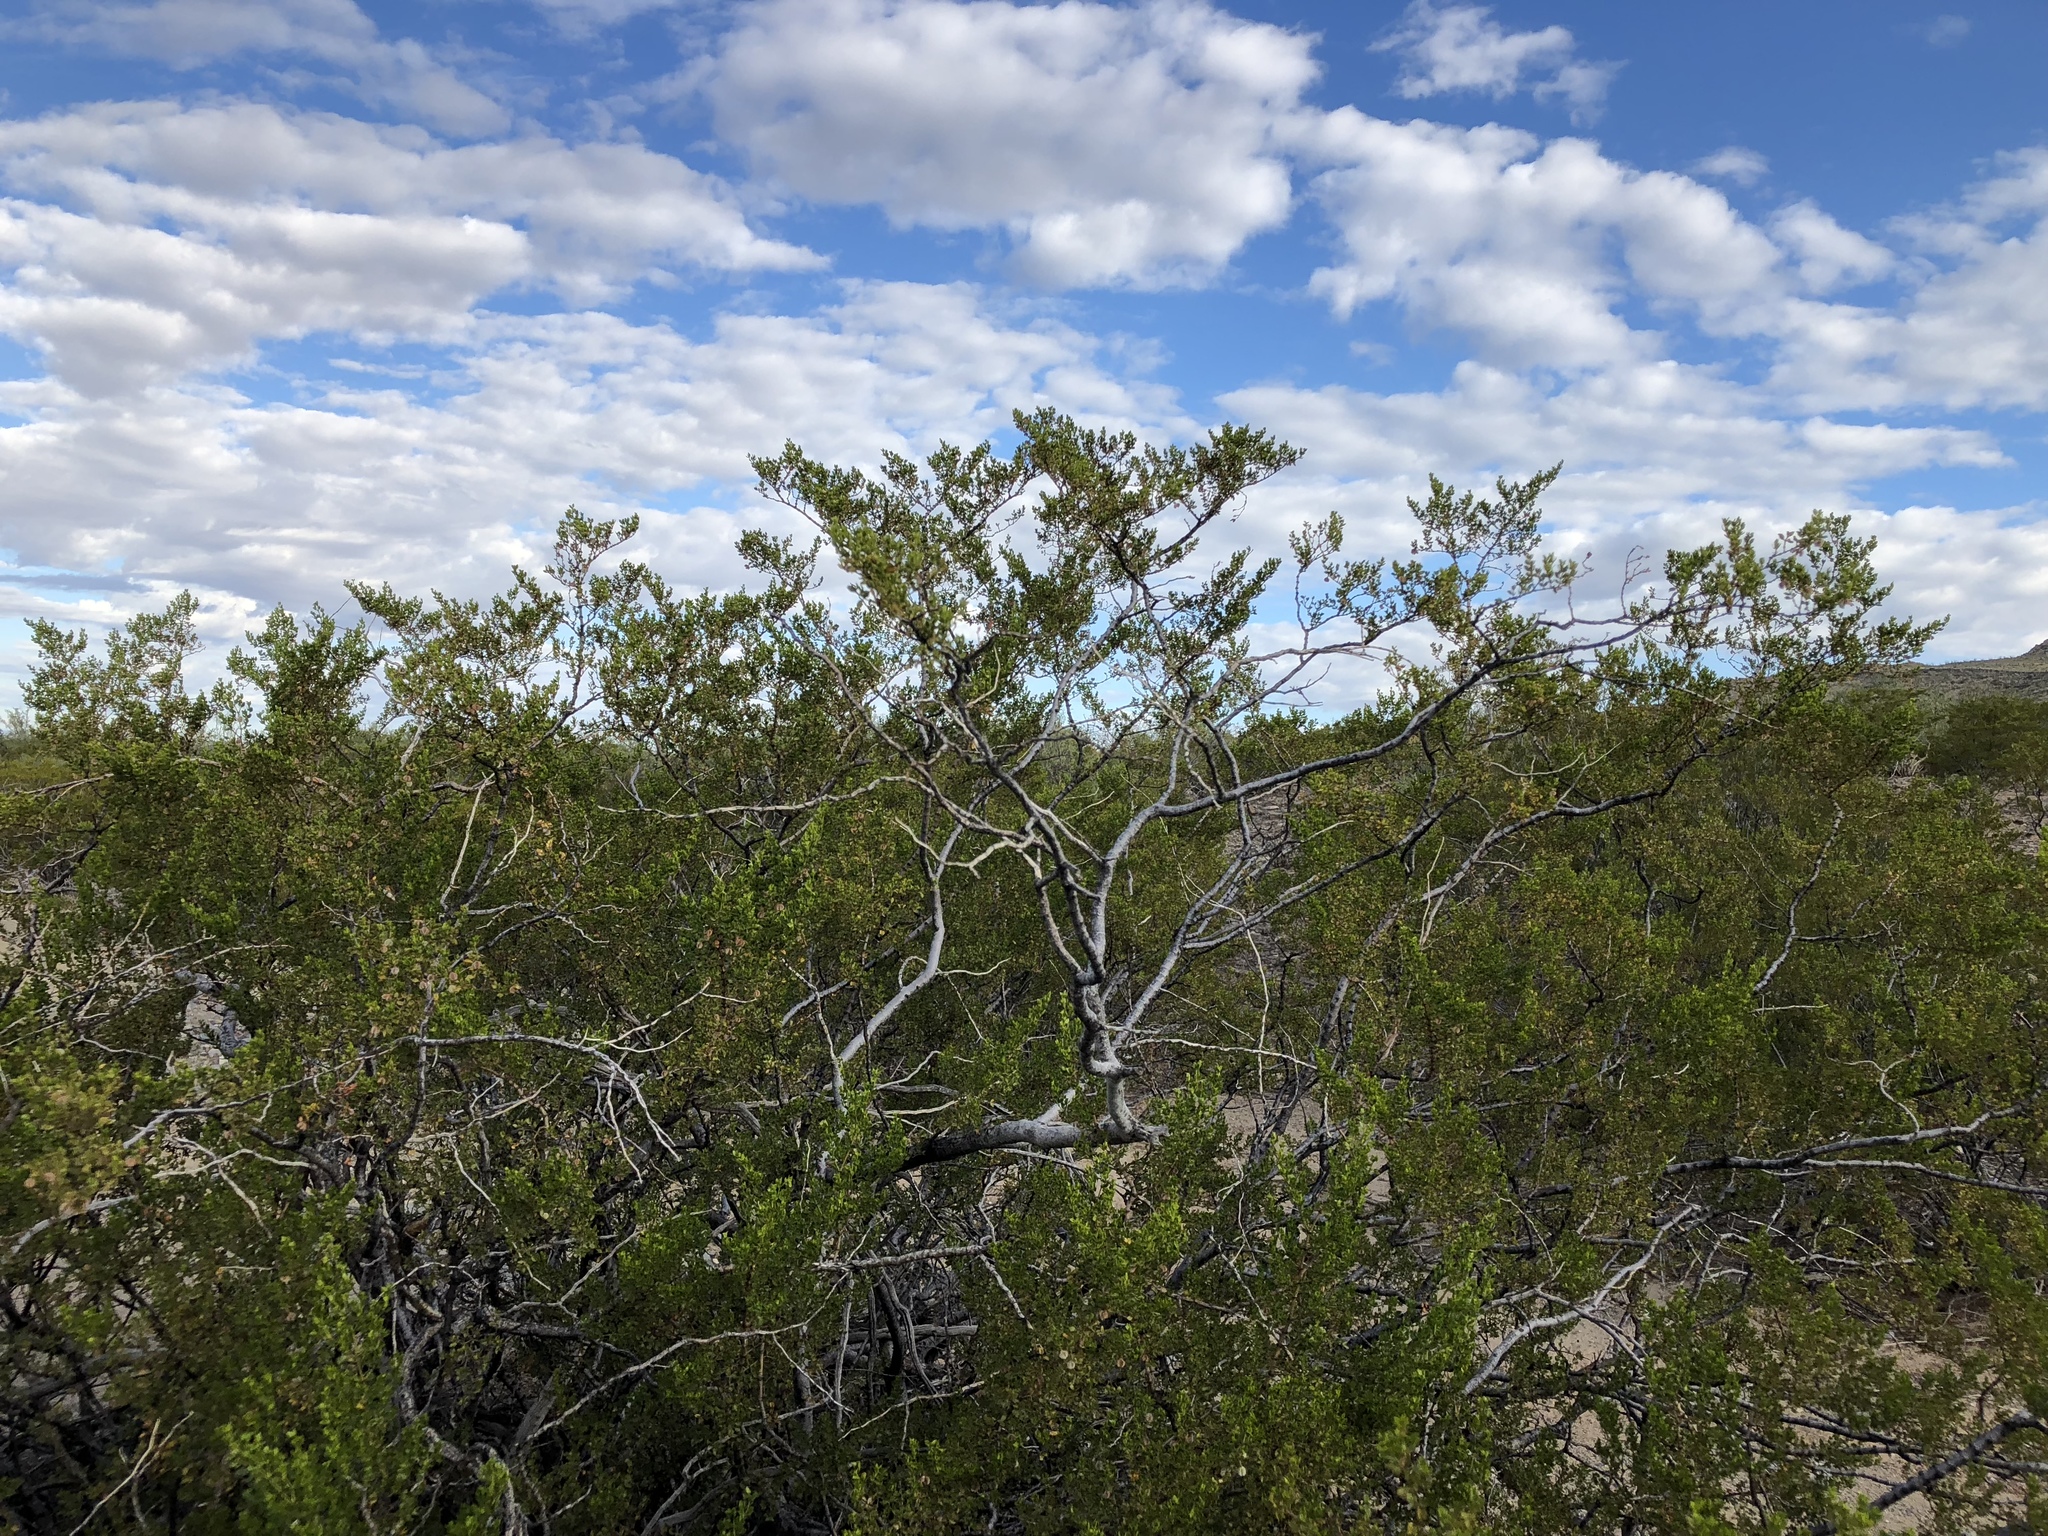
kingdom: Plantae
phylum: Tracheophyta
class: Magnoliopsida
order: Zygophyllales
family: Zygophyllaceae
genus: Larrea
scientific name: Larrea tridentata
